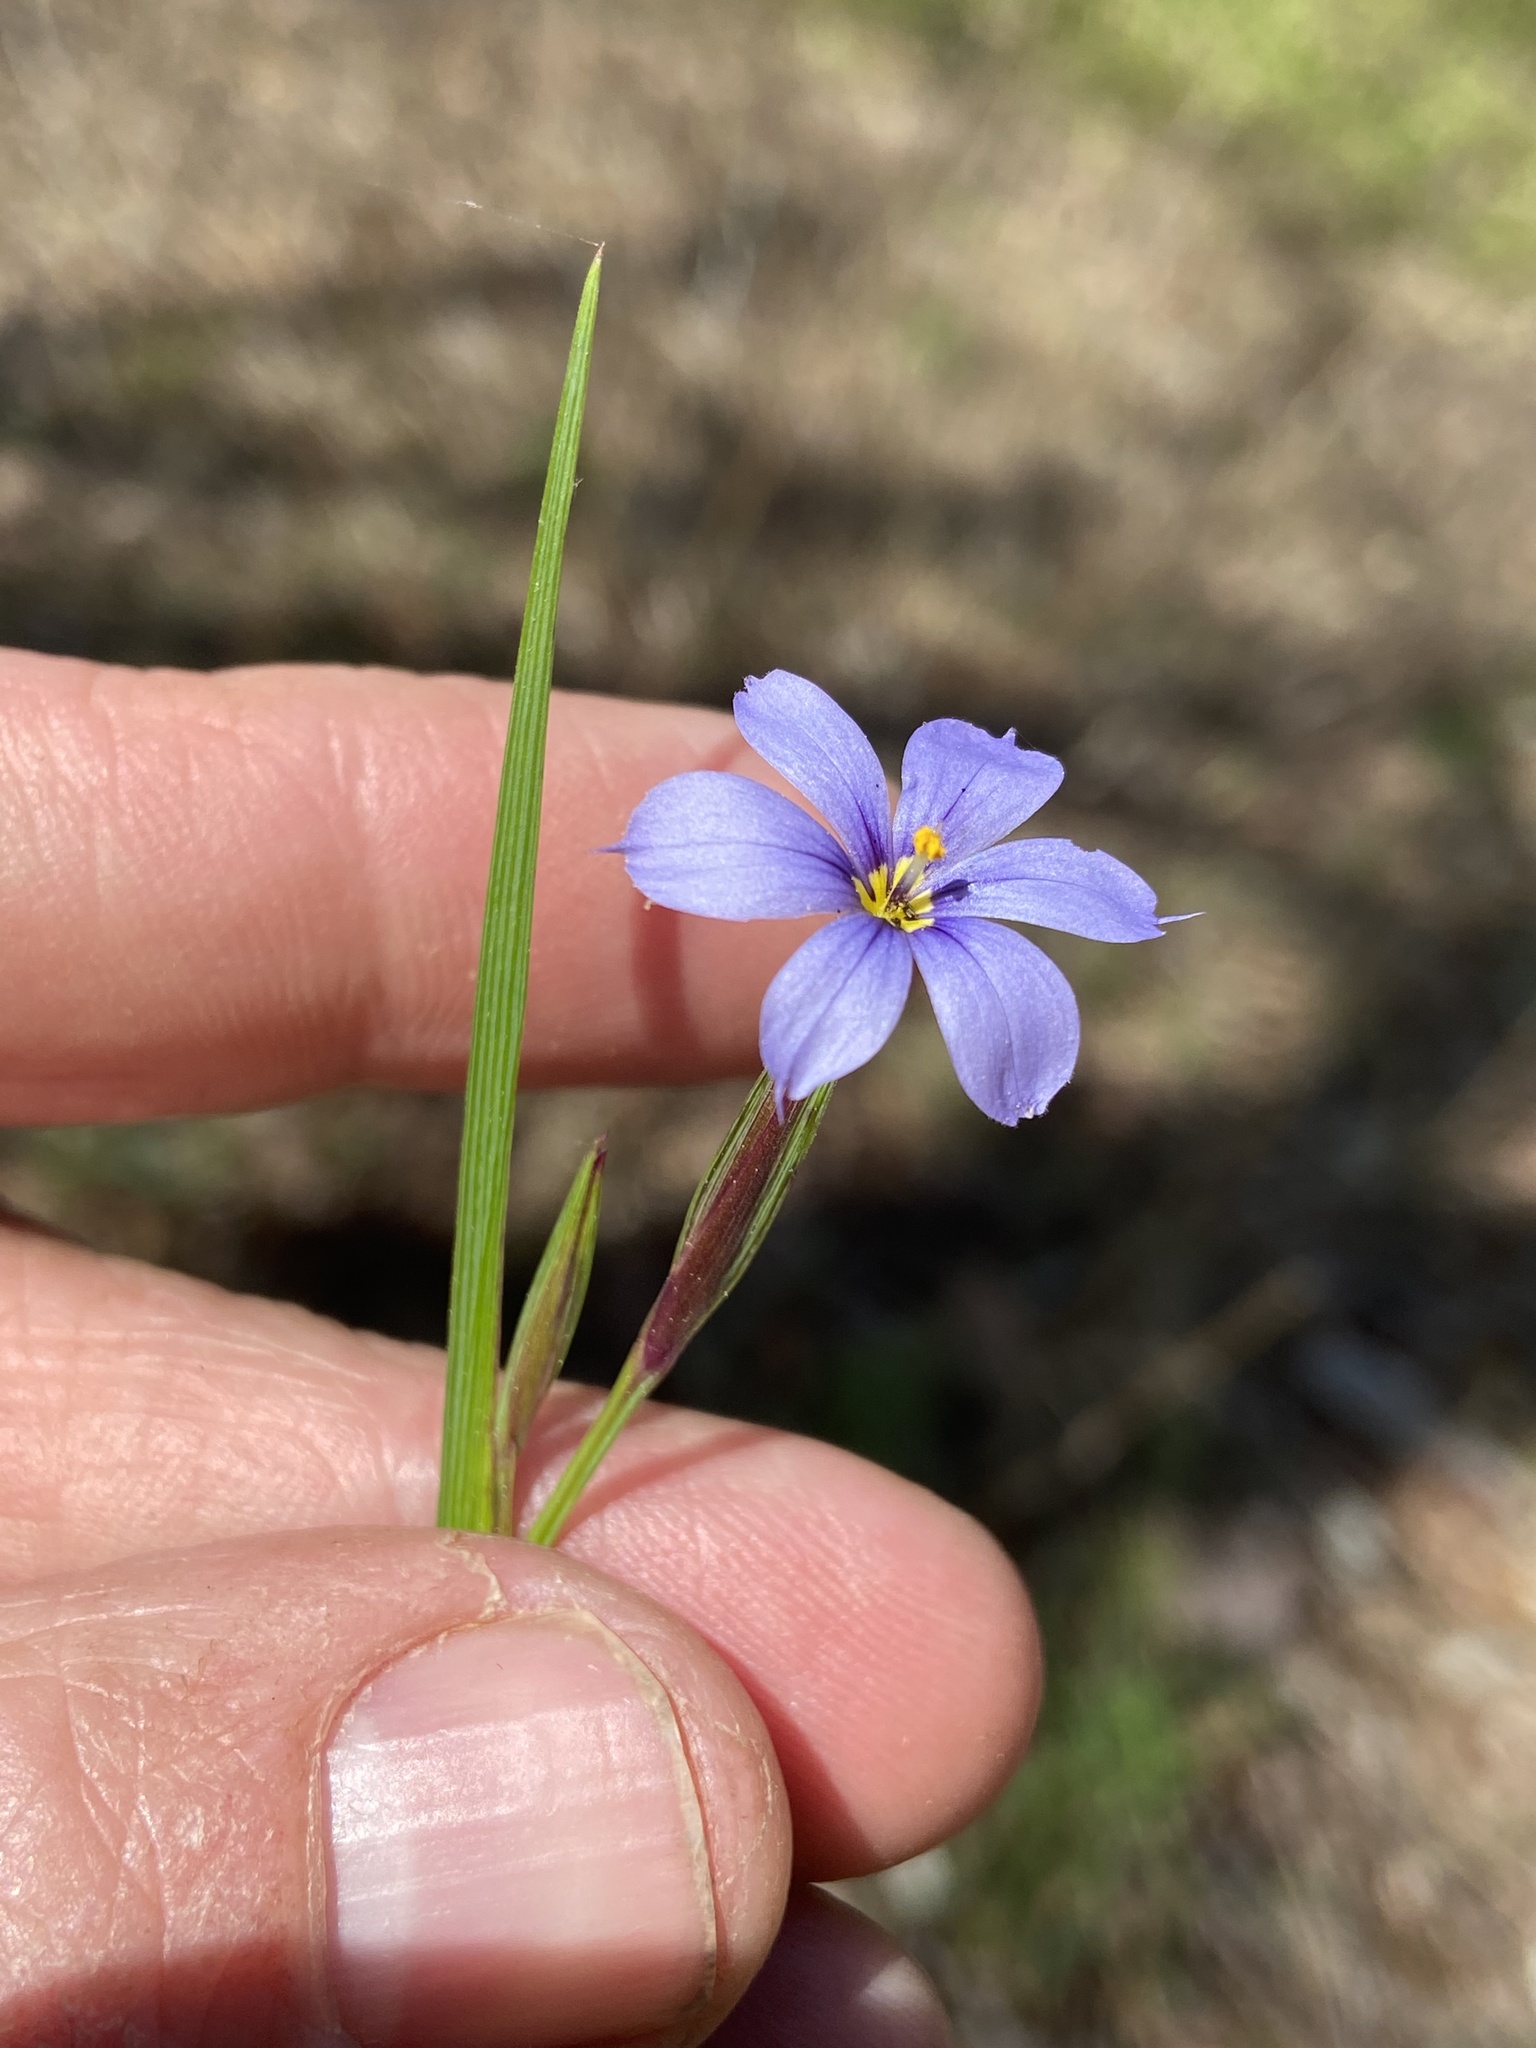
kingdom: Plantae
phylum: Tracheophyta
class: Liliopsida
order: Asparagales
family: Iridaceae
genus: Sisyrinchium
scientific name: Sisyrinchium langloisii
